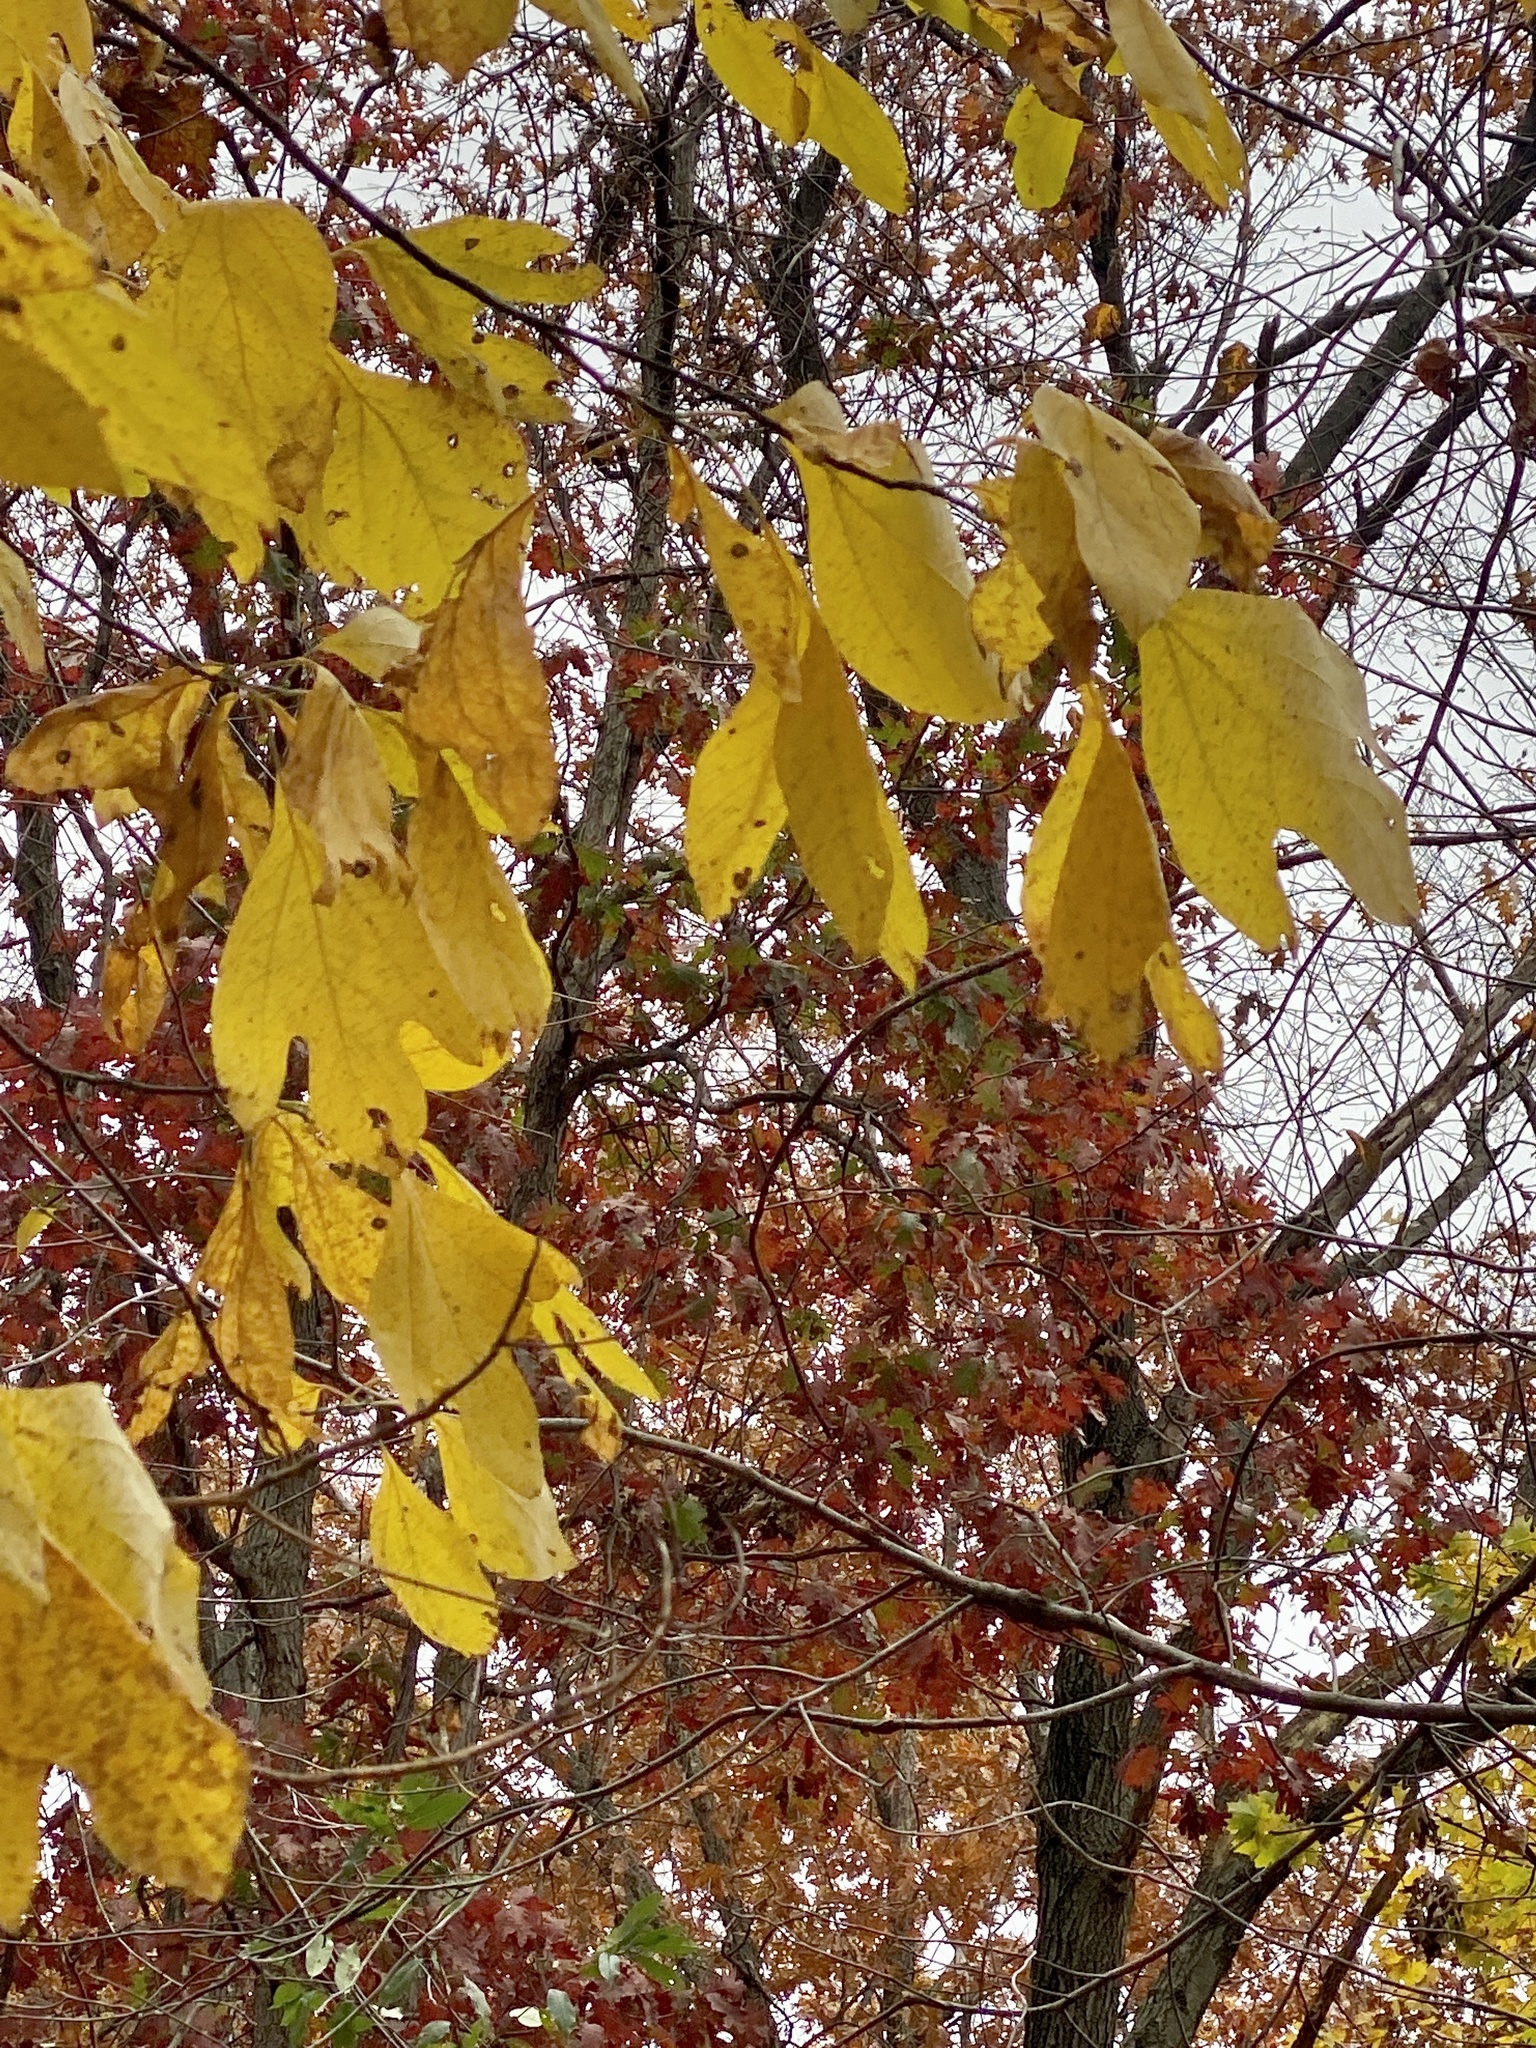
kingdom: Plantae
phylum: Tracheophyta
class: Magnoliopsida
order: Laurales
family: Lauraceae
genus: Sassafras
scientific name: Sassafras albidum
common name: Sassafras
